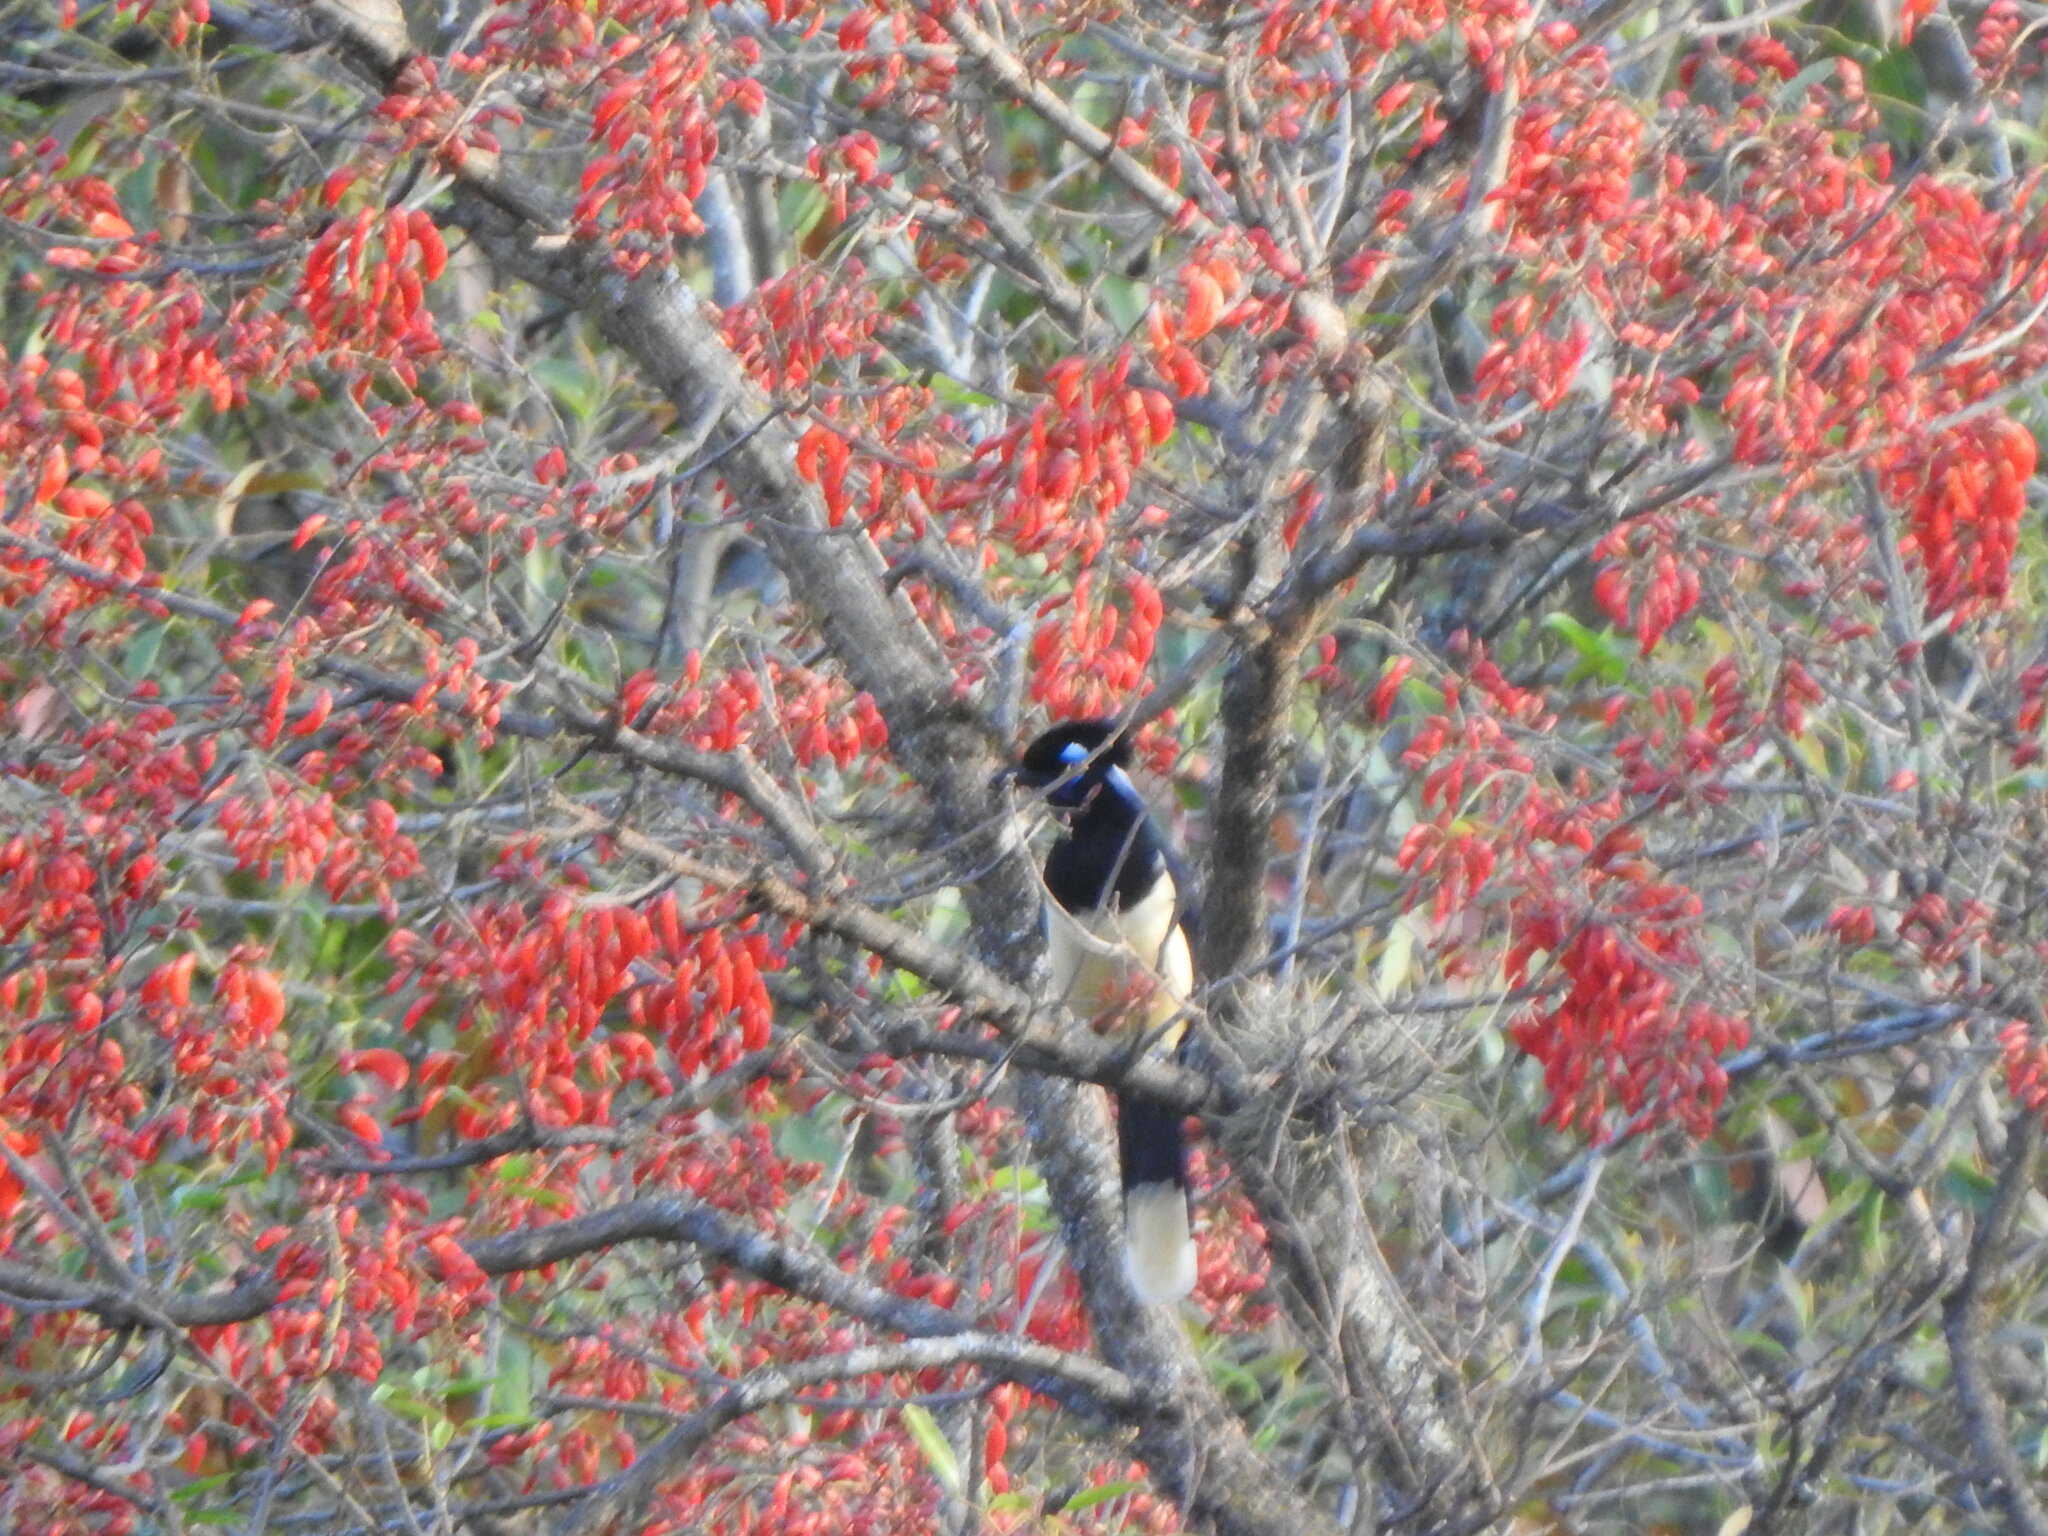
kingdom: Animalia
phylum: Chordata
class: Aves
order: Passeriformes
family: Corvidae
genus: Cyanocorax
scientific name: Cyanocorax chrysops
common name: Plush-crested jay
